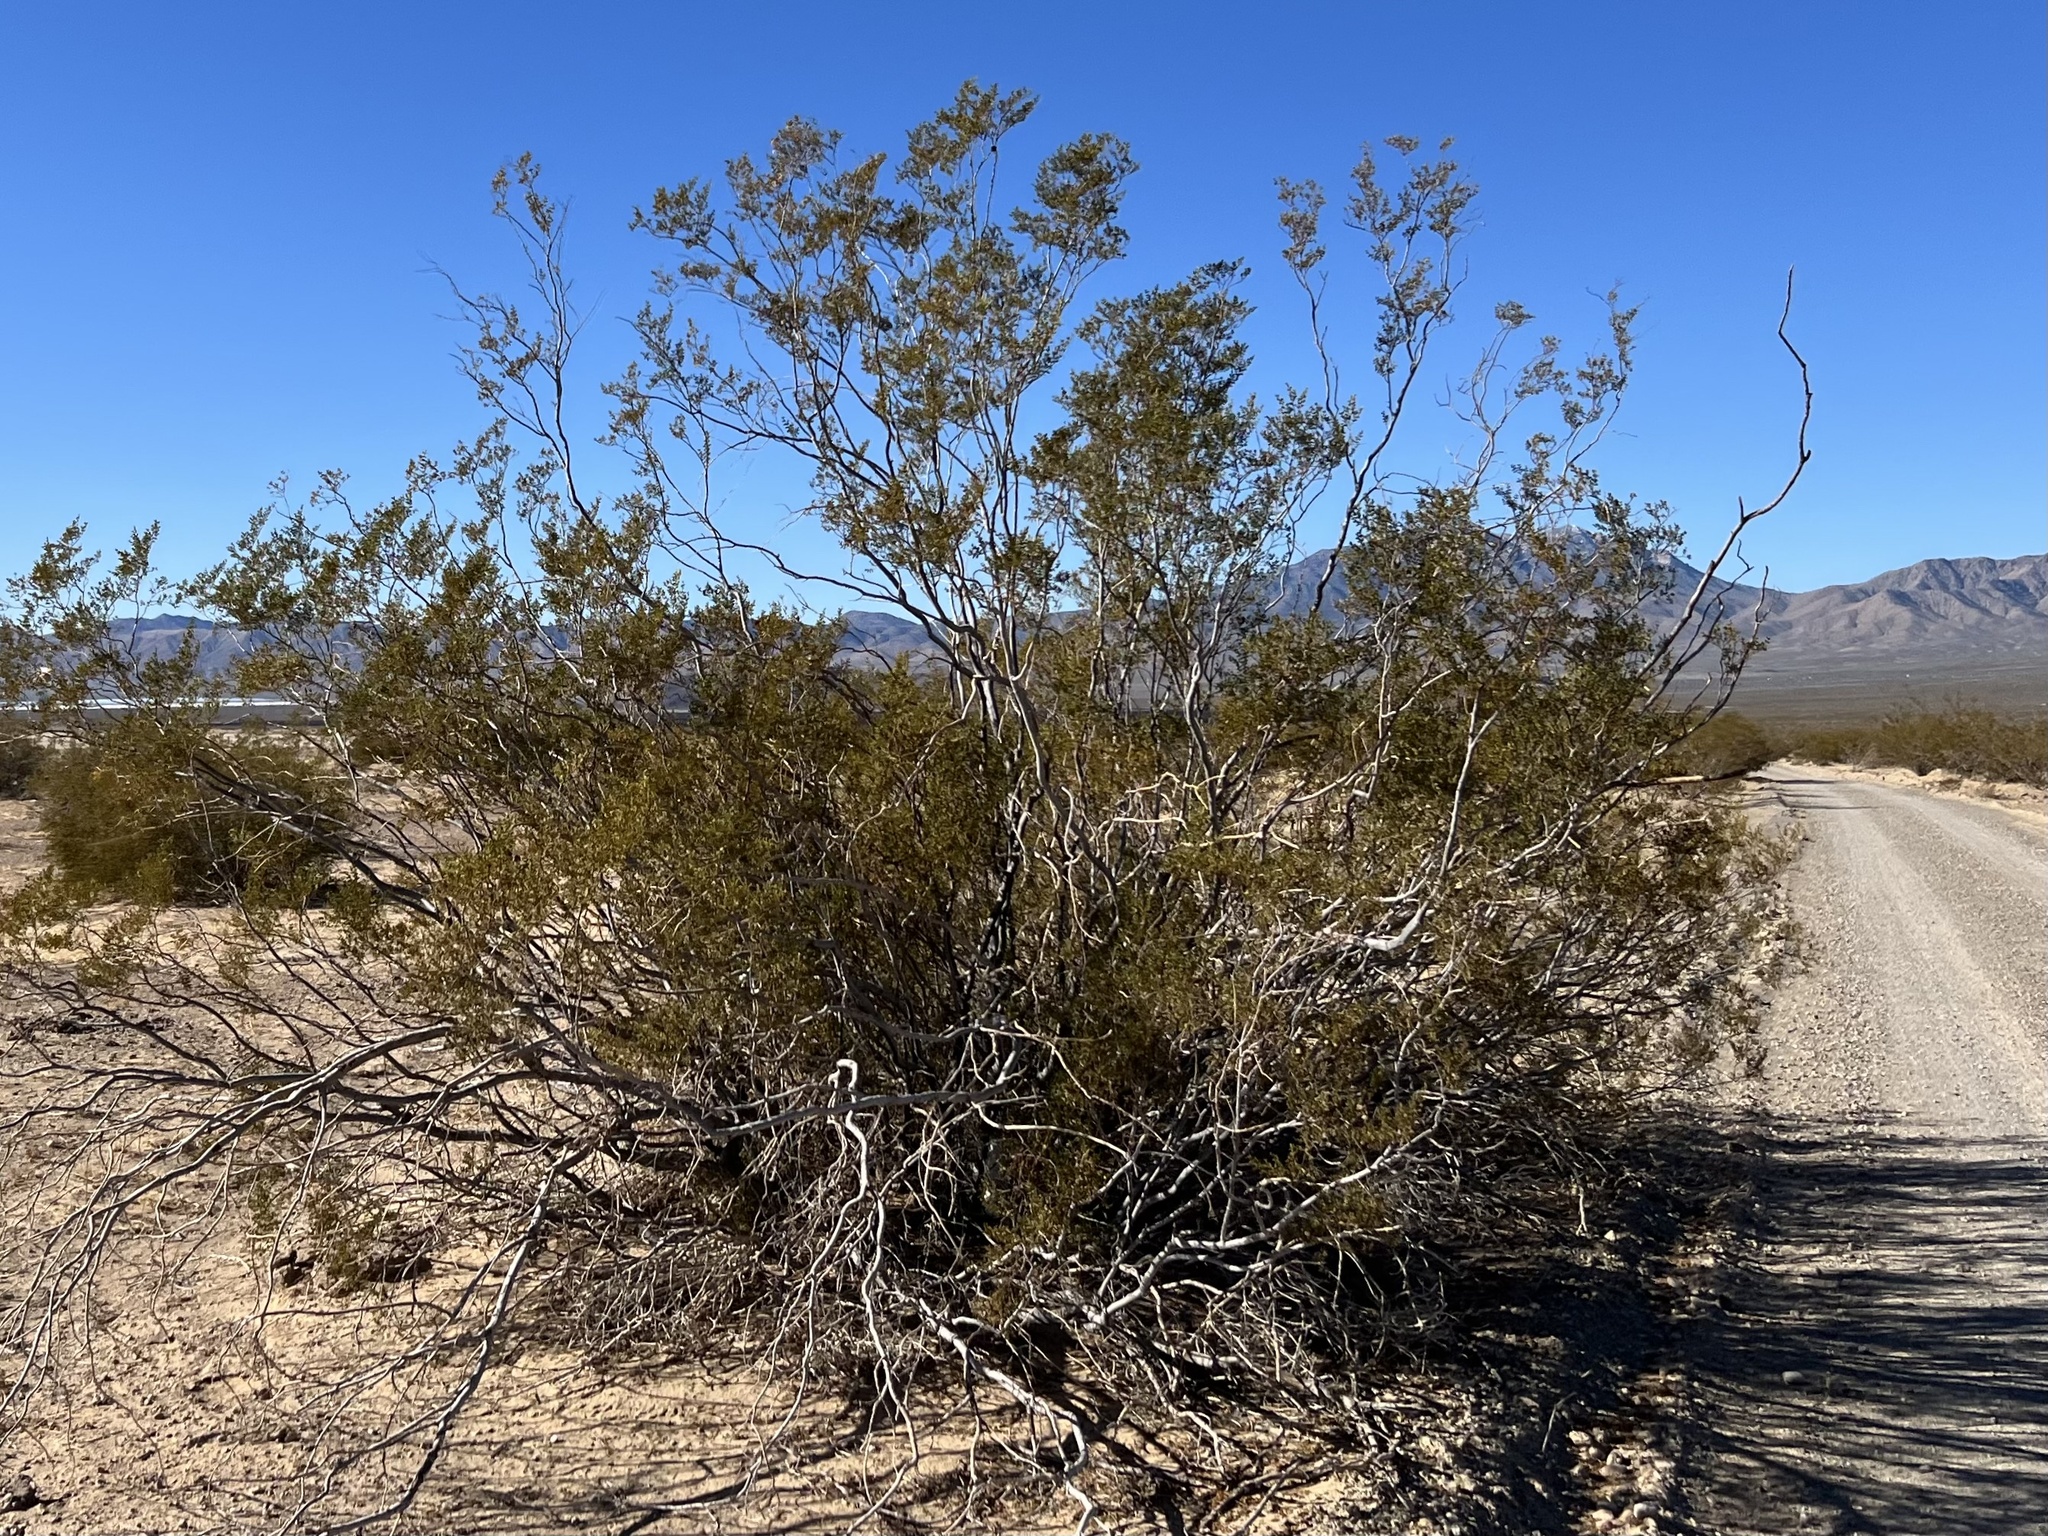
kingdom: Plantae
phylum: Tracheophyta
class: Magnoliopsida
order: Zygophyllales
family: Zygophyllaceae
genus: Larrea
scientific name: Larrea tridentata
